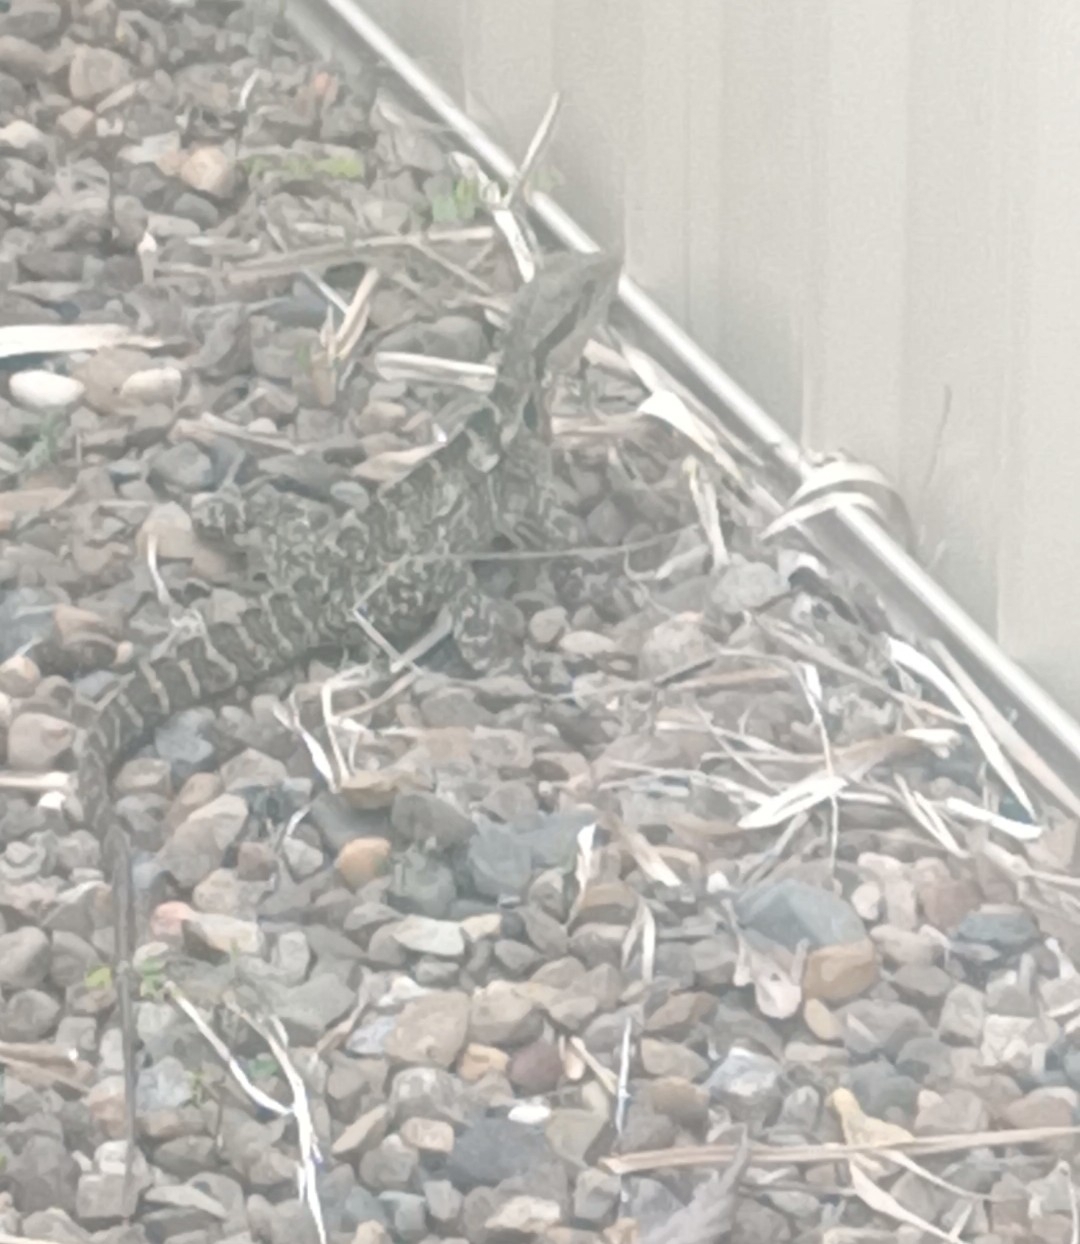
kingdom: Animalia
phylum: Chordata
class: Squamata
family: Agamidae
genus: Intellagama
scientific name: Intellagama lesueurii
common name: Eastern water dragon
